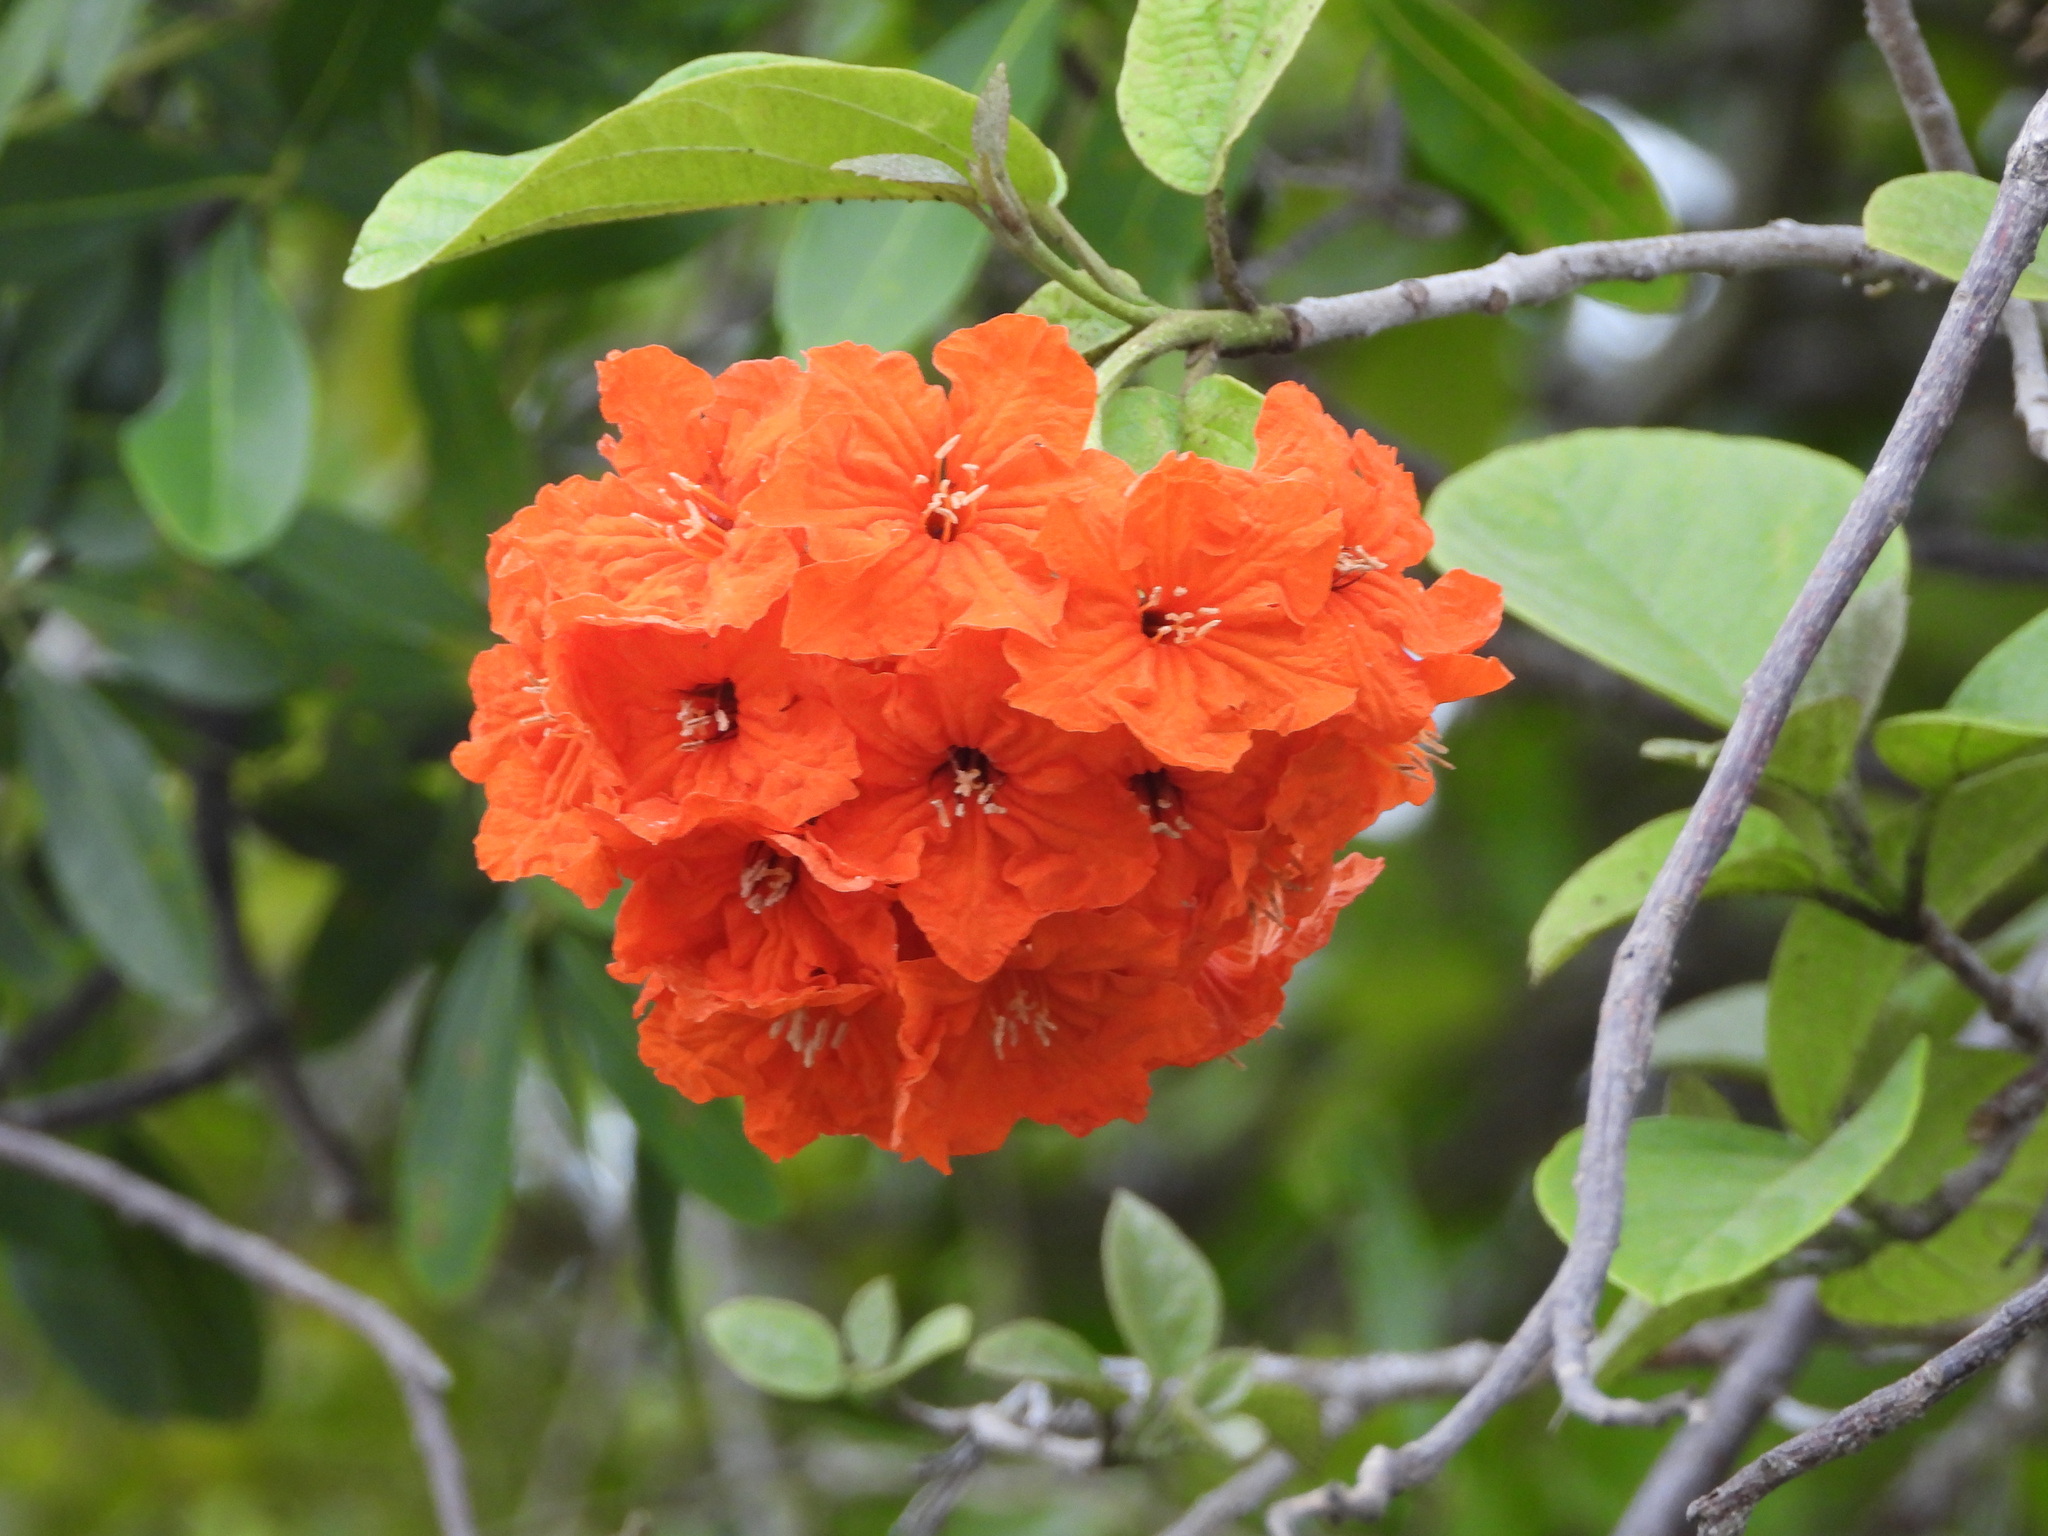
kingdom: Plantae
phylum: Tracheophyta
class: Magnoliopsida
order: Boraginales
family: Cordiaceae
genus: Cordia
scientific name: Cordia sebestena
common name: Largeleaf geigertree
